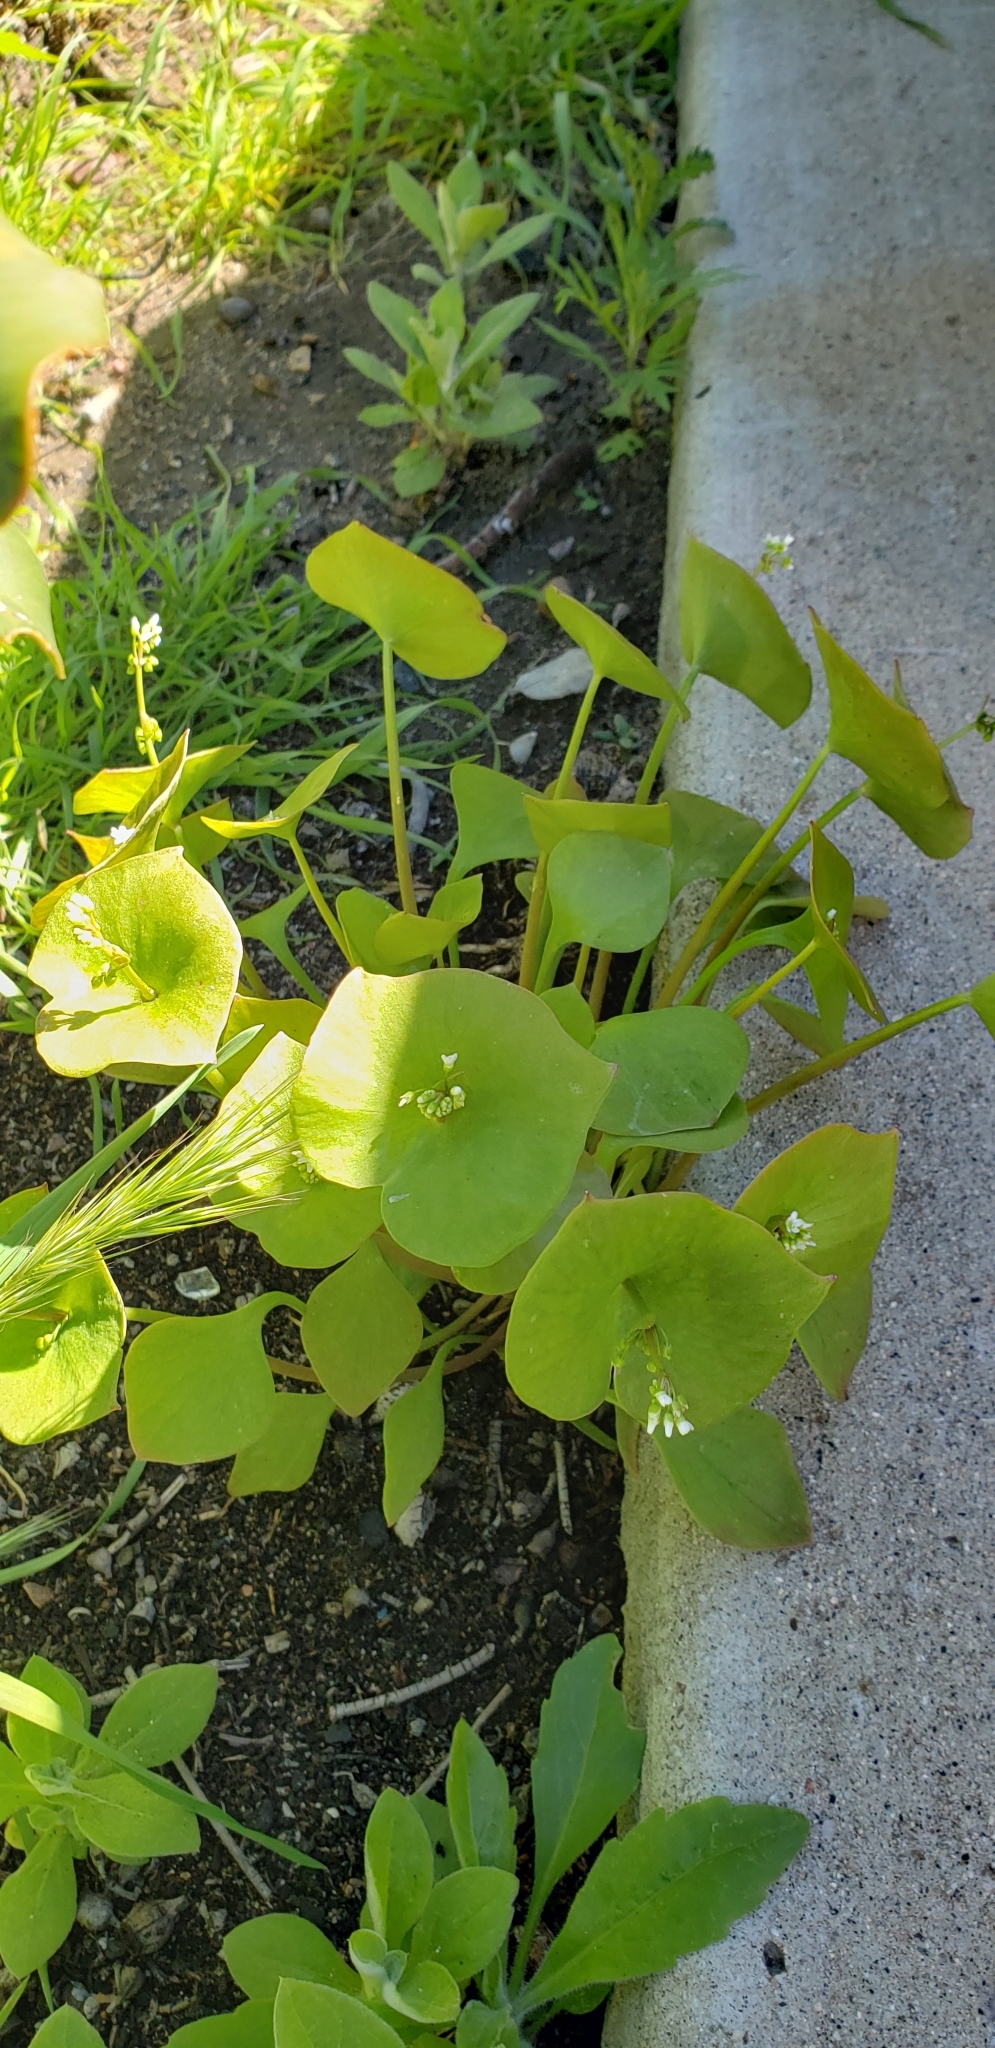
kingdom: Plantae
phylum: Tracheophyta
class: Magnoliopsida
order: Caryophyllales
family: Montiaceae
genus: Claytonia
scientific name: Claytonia perfoliata
